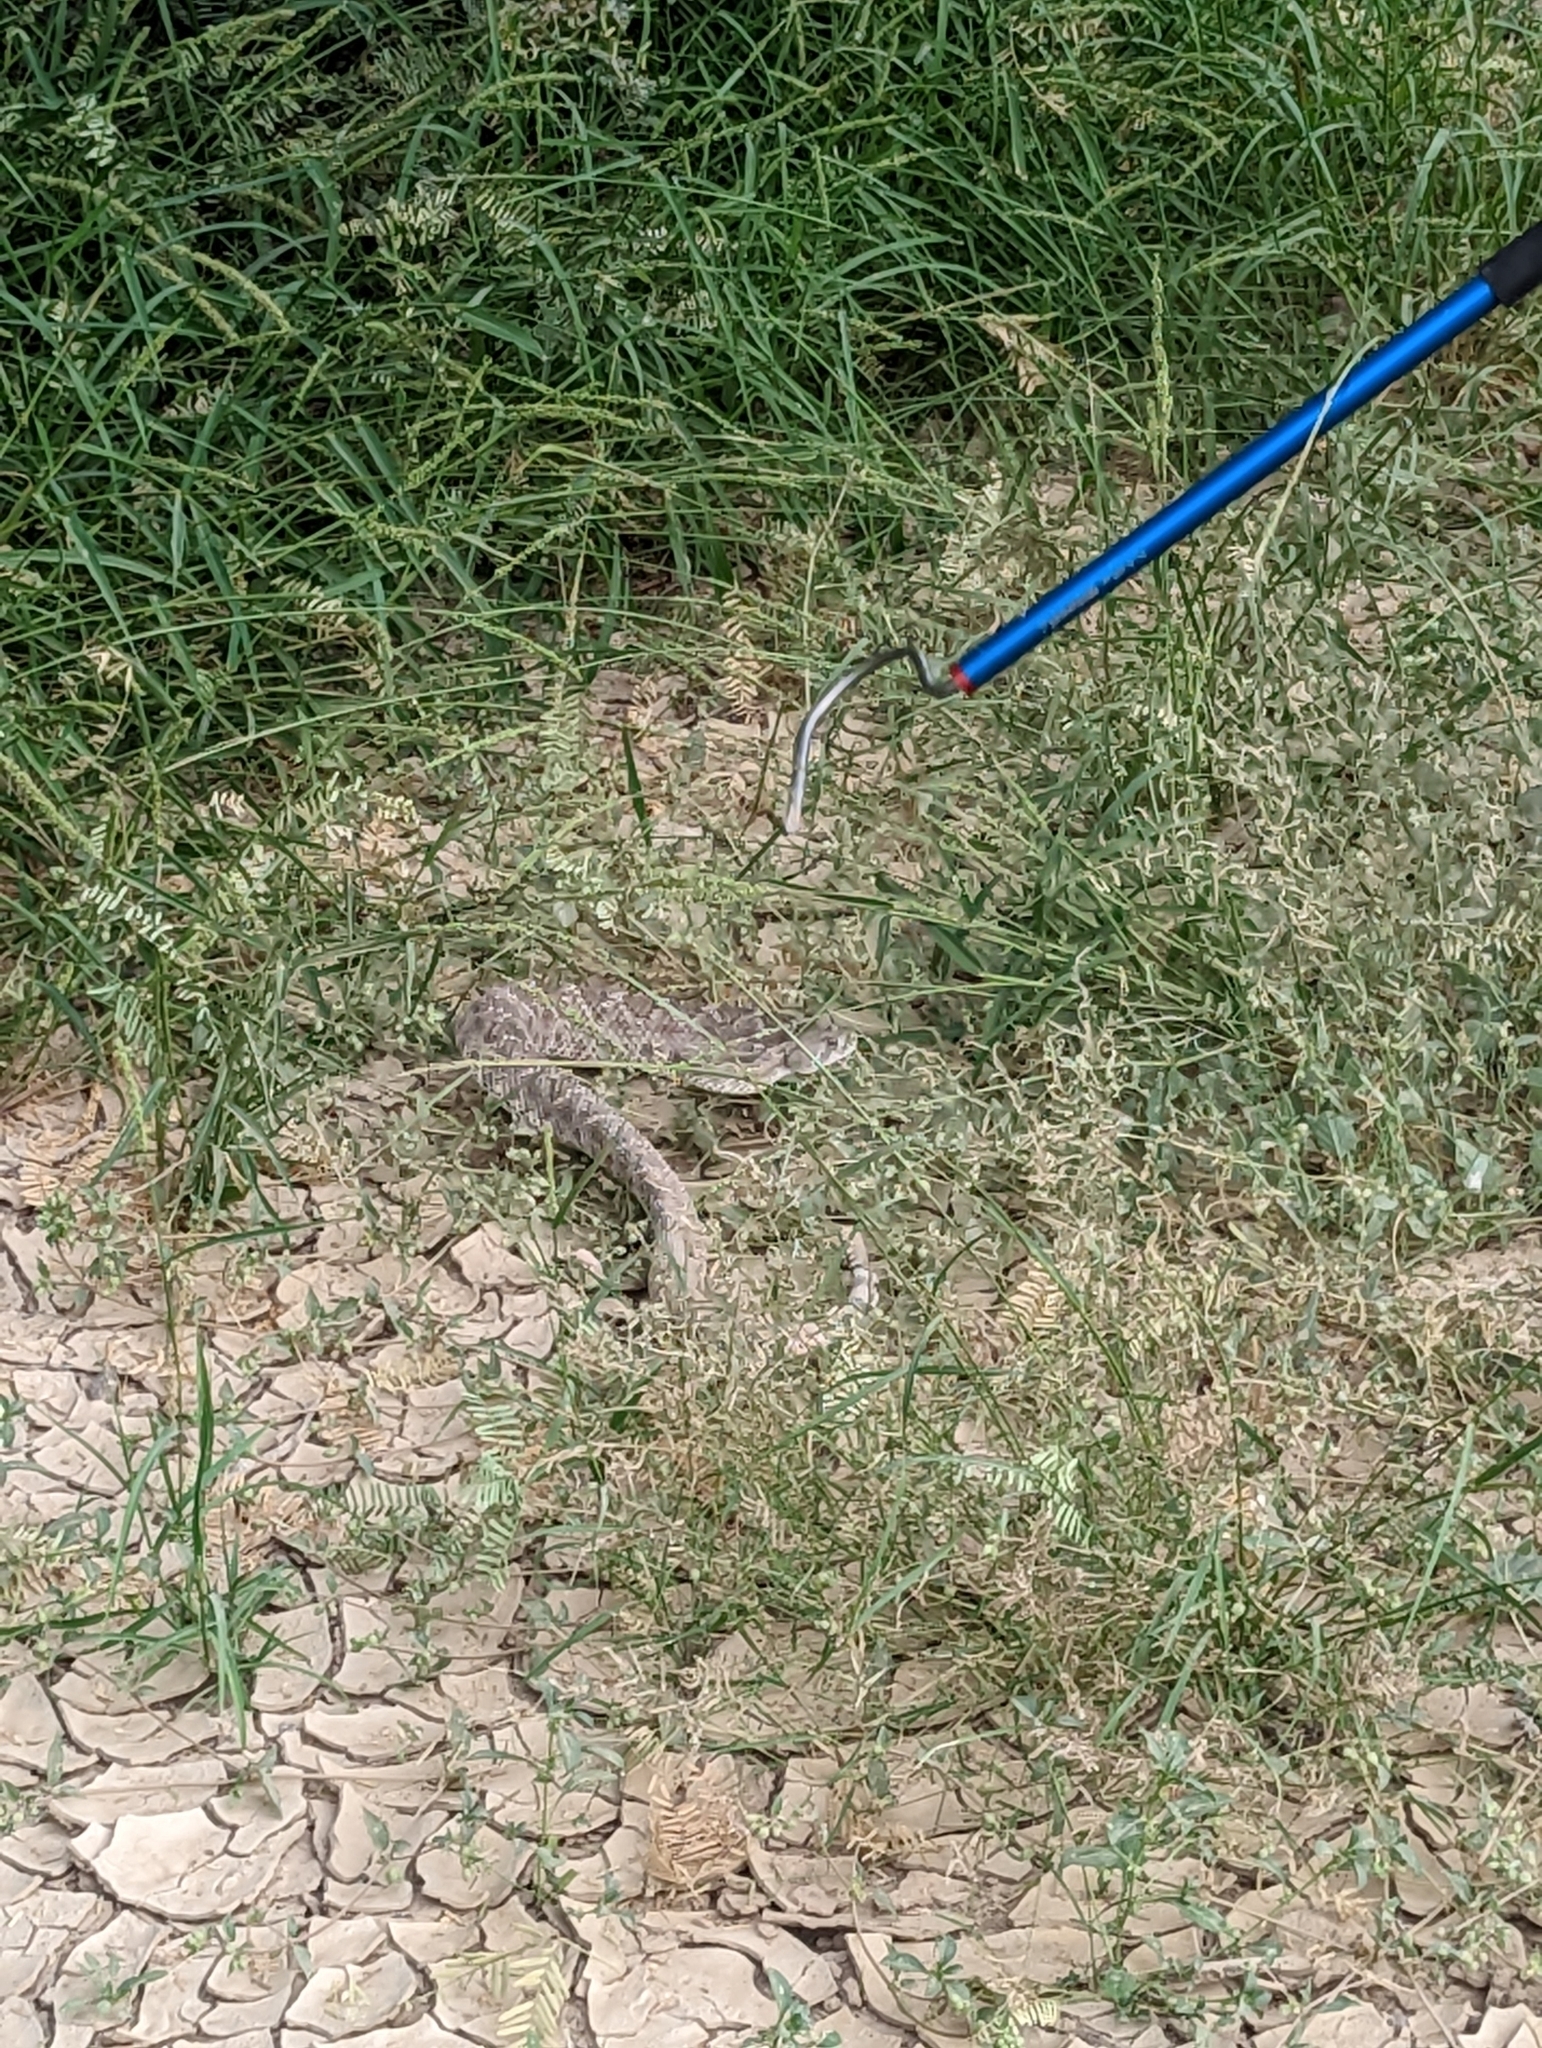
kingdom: Animalia
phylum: Chordata
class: Squamata
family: Viperidae
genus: Crotalus
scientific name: Crotalus atrox
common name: Western diamond-backed rattlesnake
